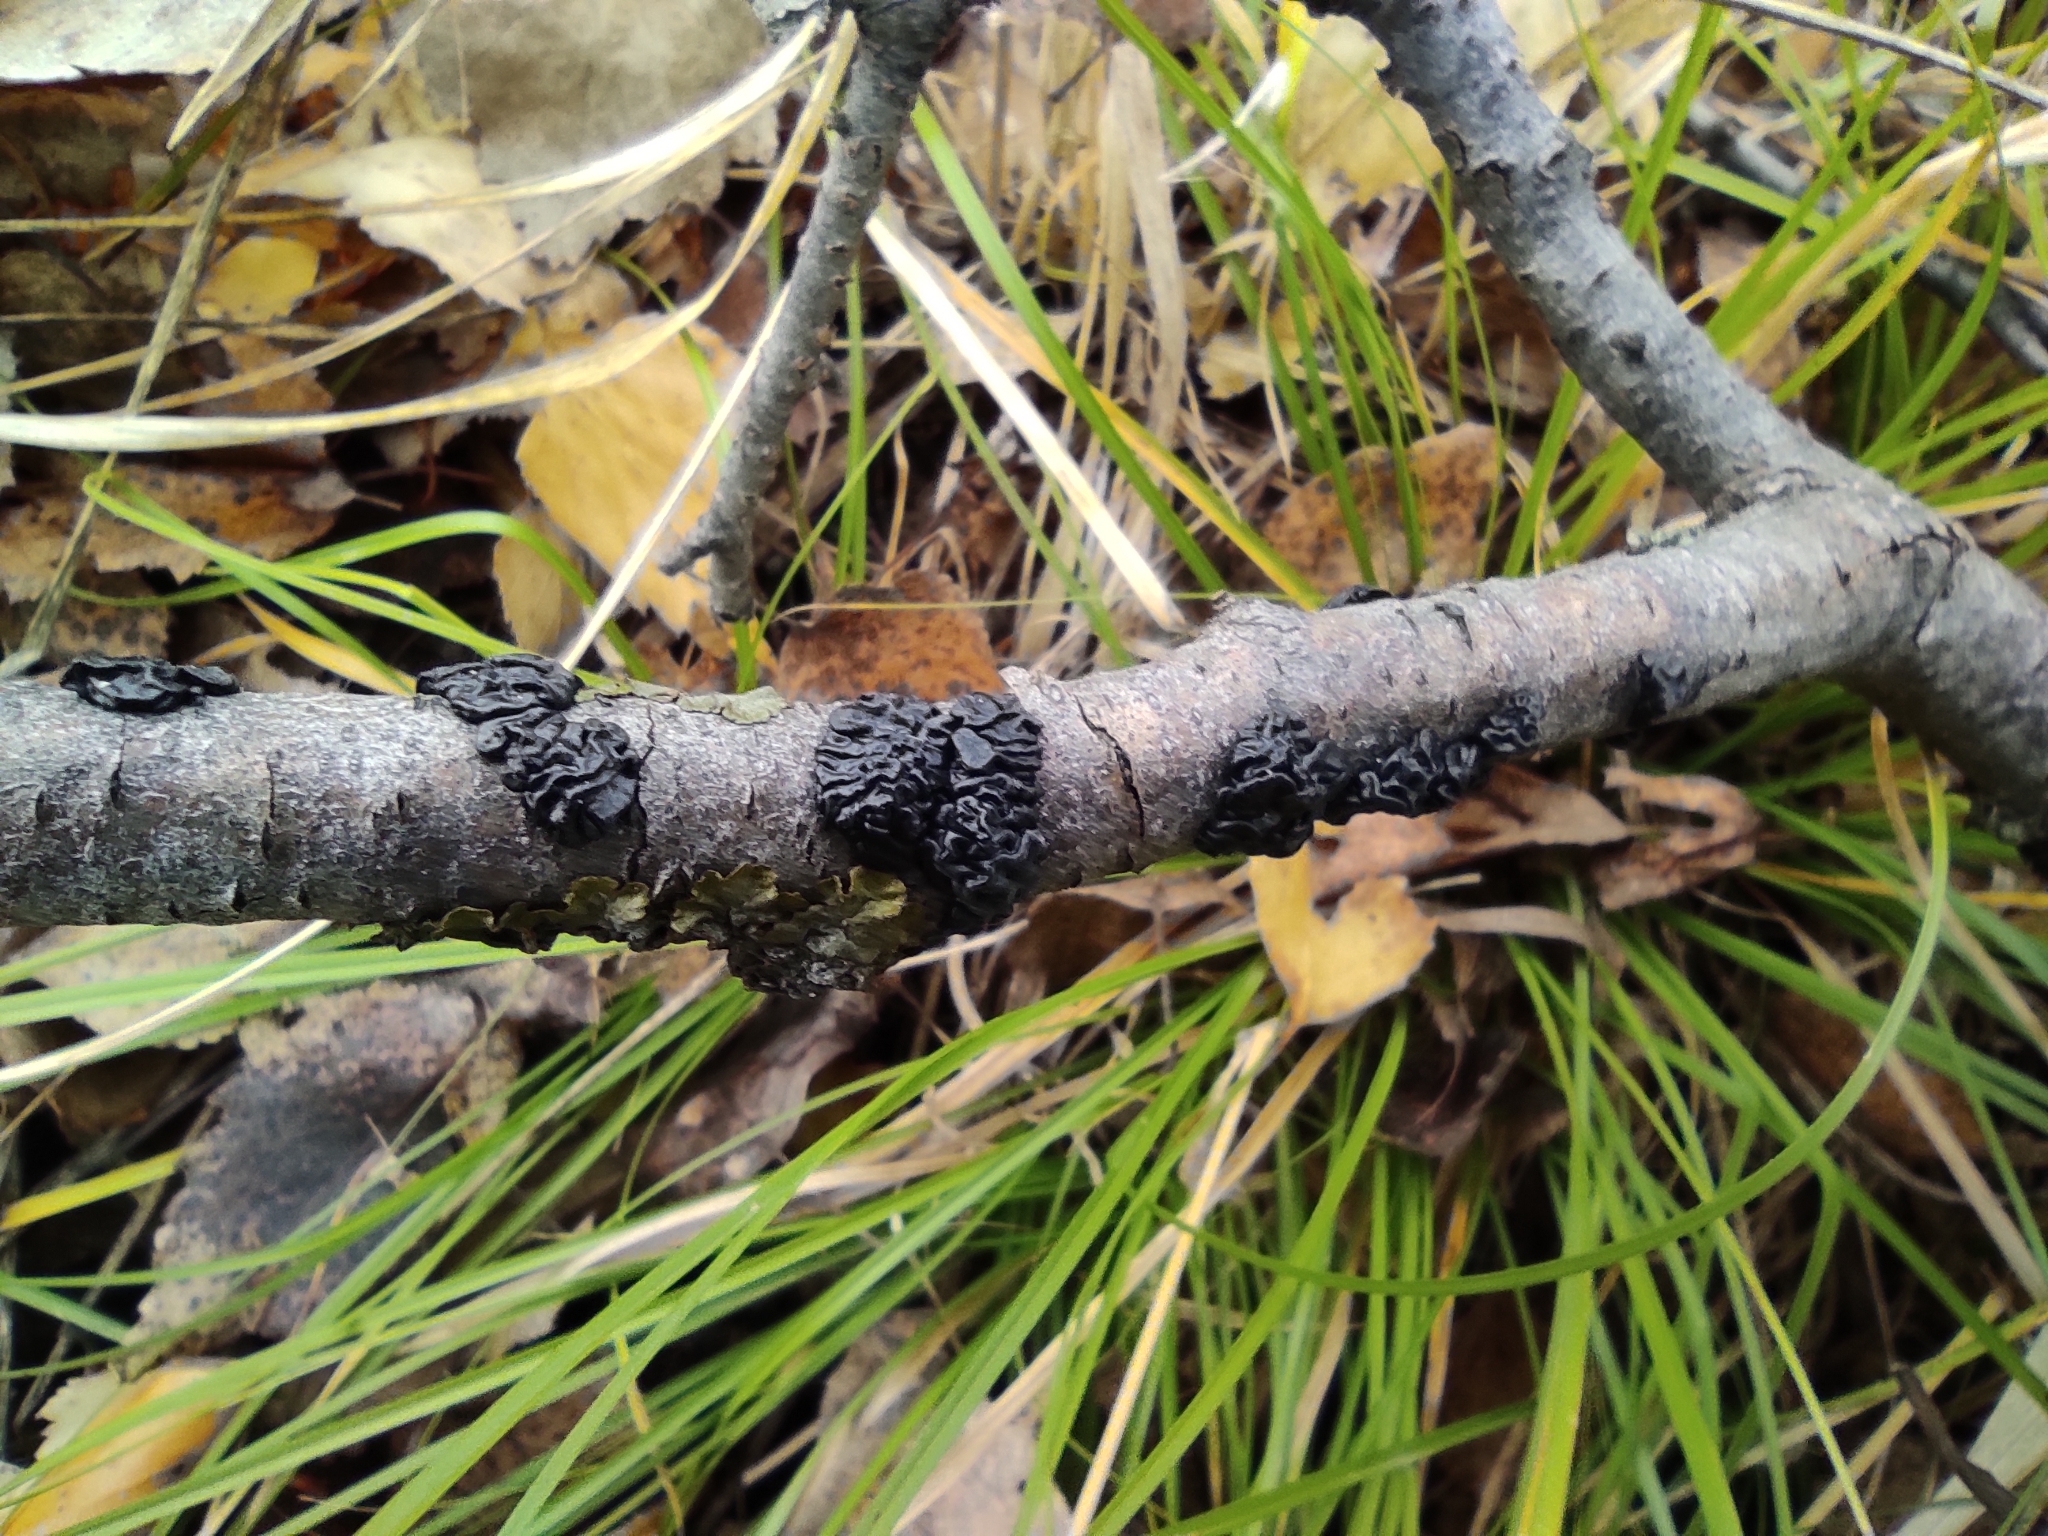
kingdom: Fungi
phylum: Basidiomycota
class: Agaricomycetes
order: Auriculariales
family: Auriculariaceae
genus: Exidia
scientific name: Exidia nigricans
